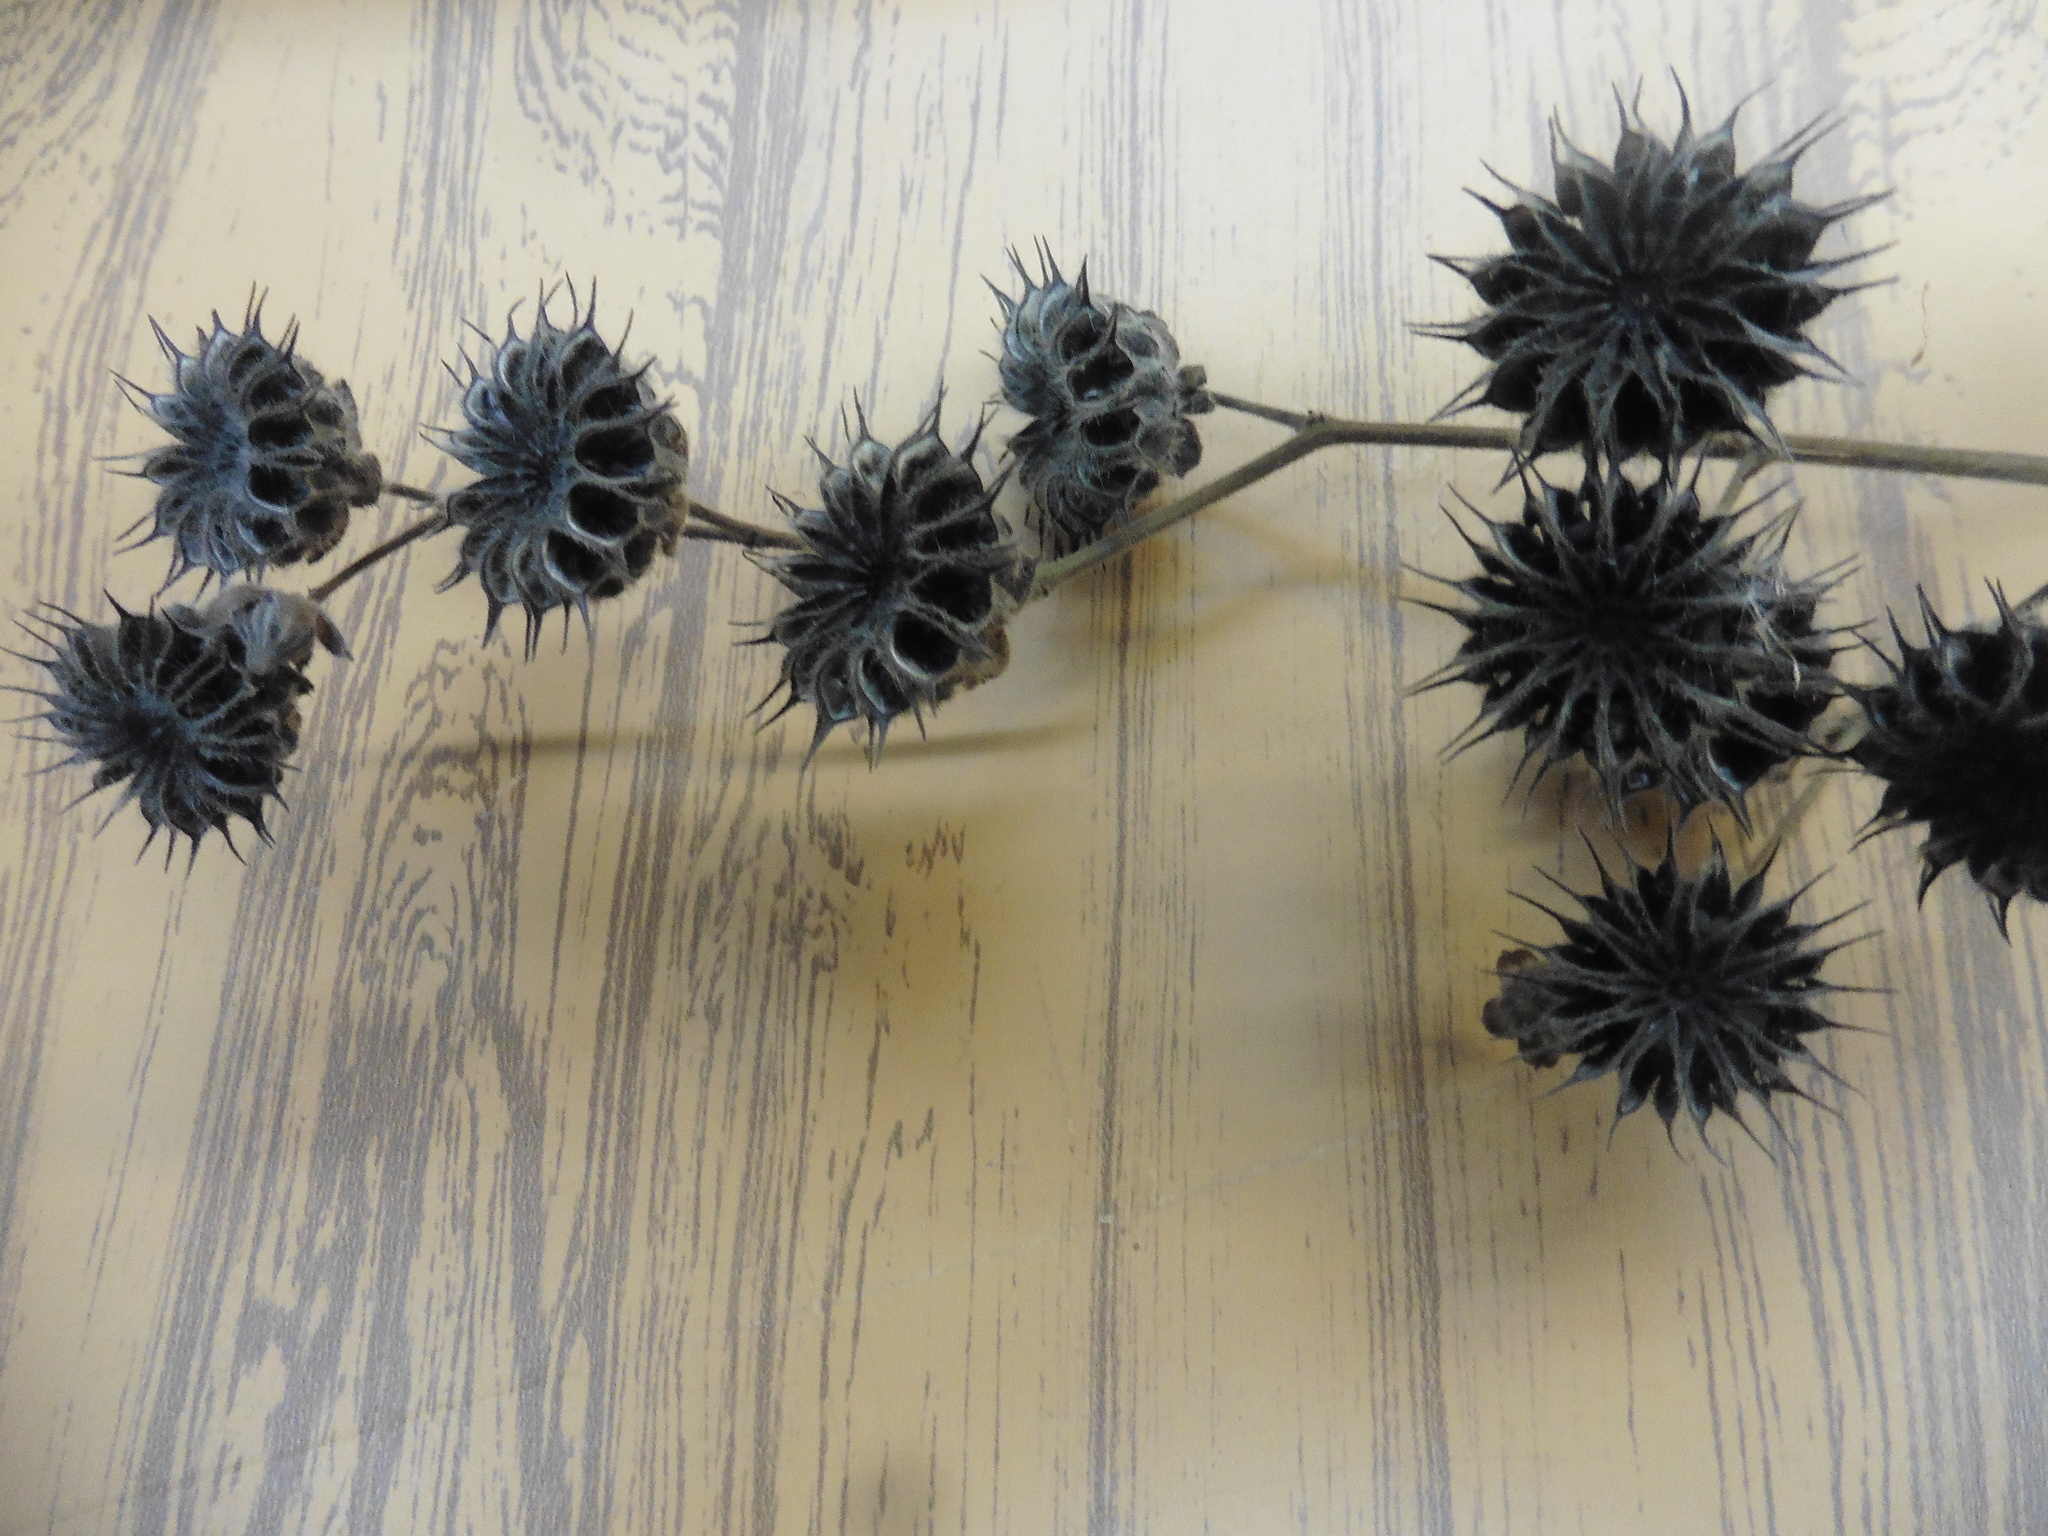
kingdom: Plantae
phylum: Tracheophyta
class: Magnoliopsida
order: Malvales
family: Malvaceae
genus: Abutilon
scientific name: Abutilon theophrasti
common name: Velvetleaf
